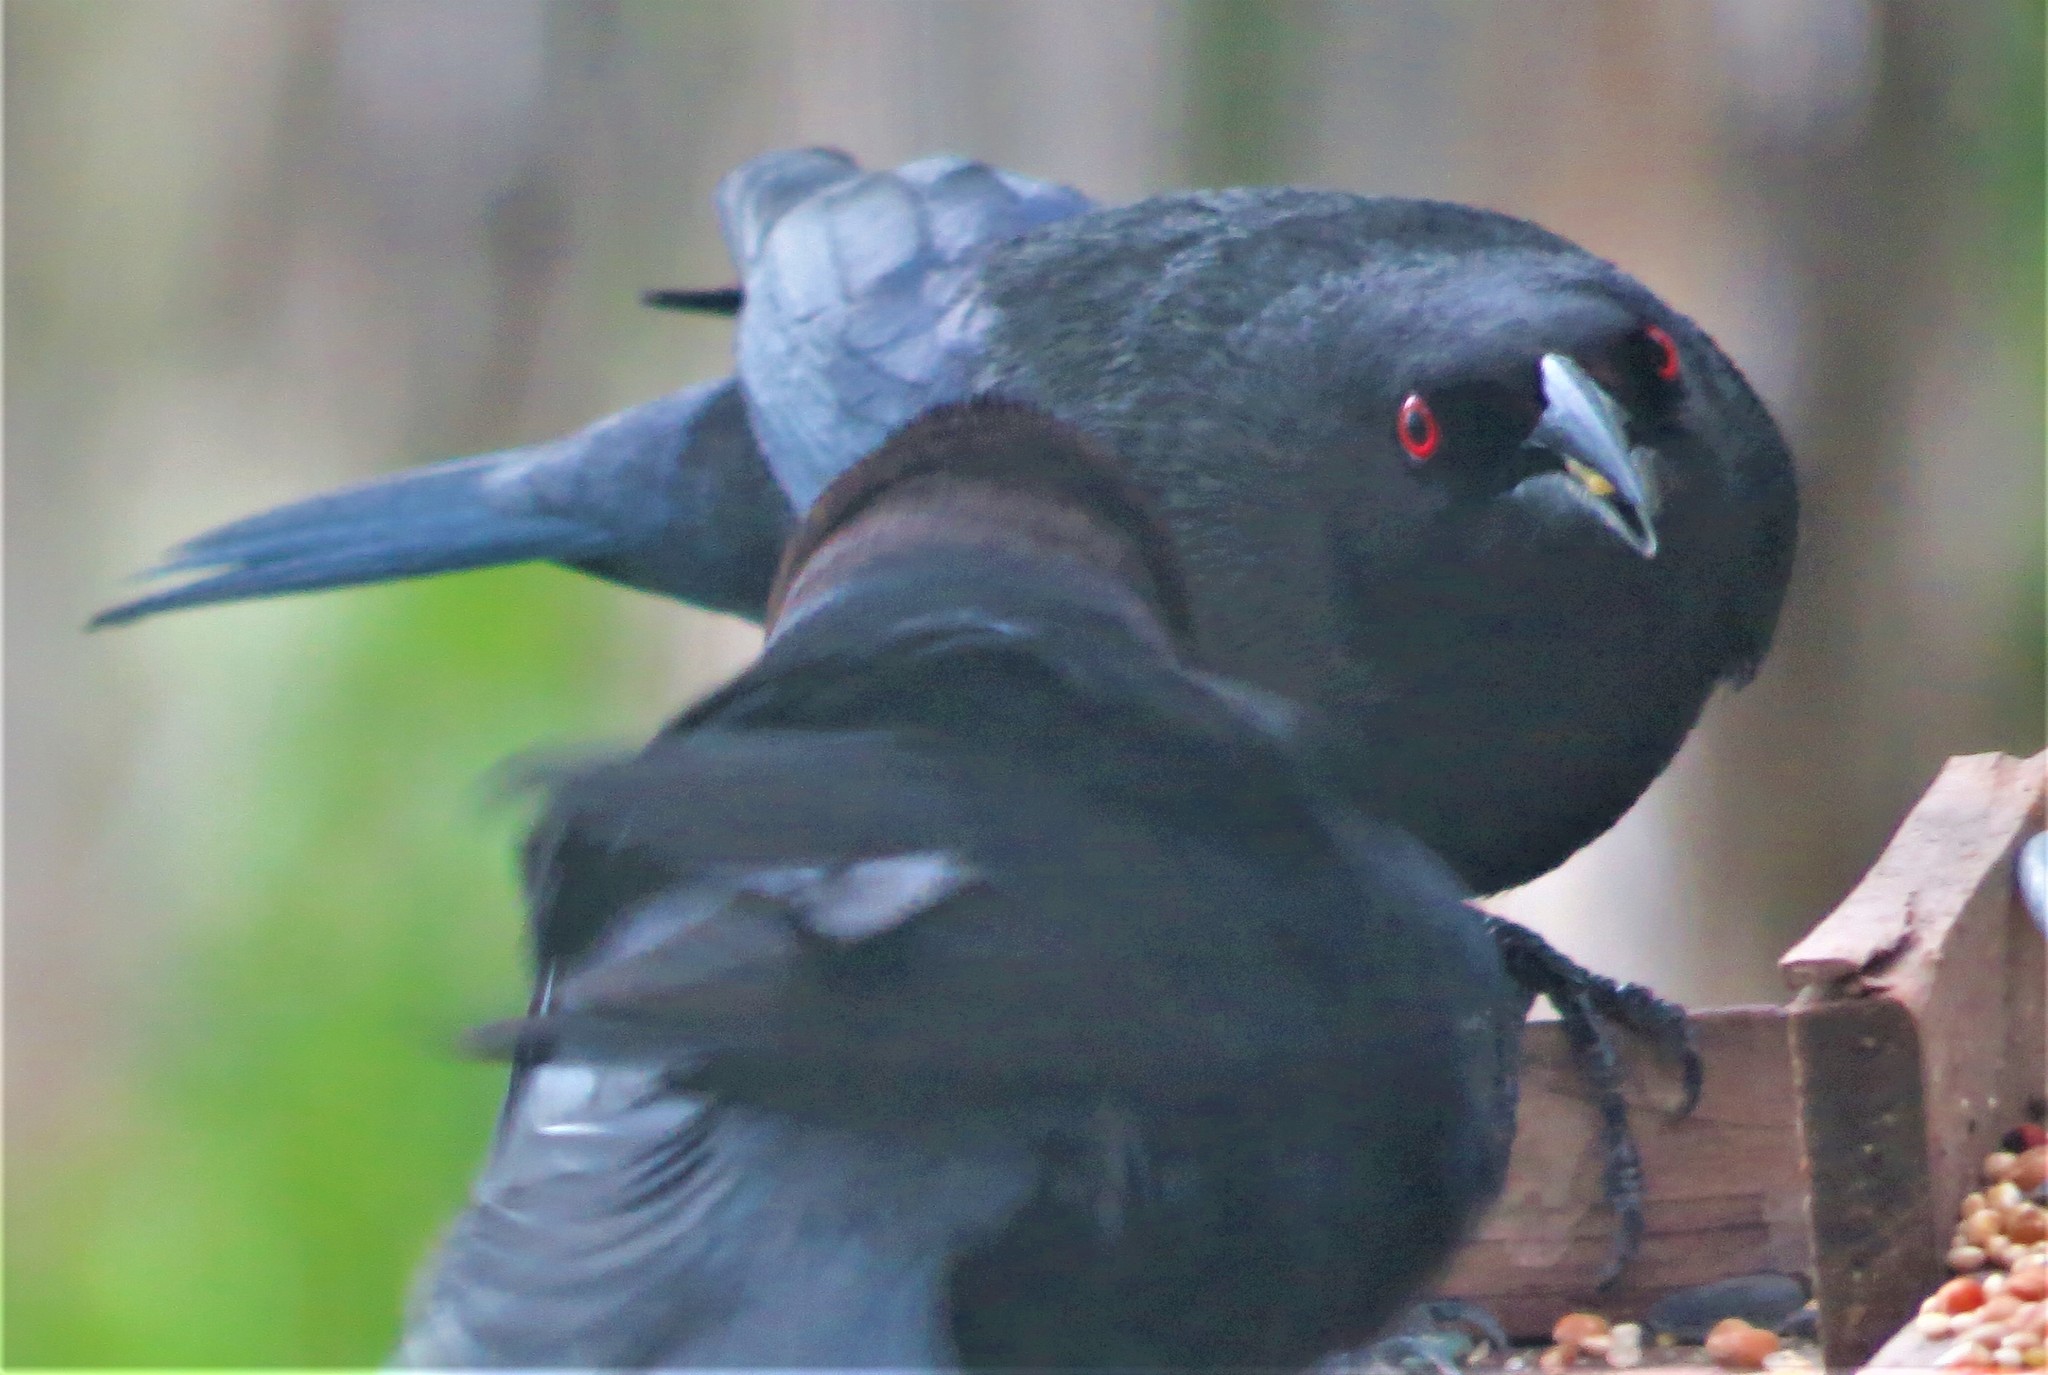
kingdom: Animalia
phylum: Chordata
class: Aves
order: Passeriformes
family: Icteridae
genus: Molothrus
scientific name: Molothrus aeneus
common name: Bronzed cowbird
